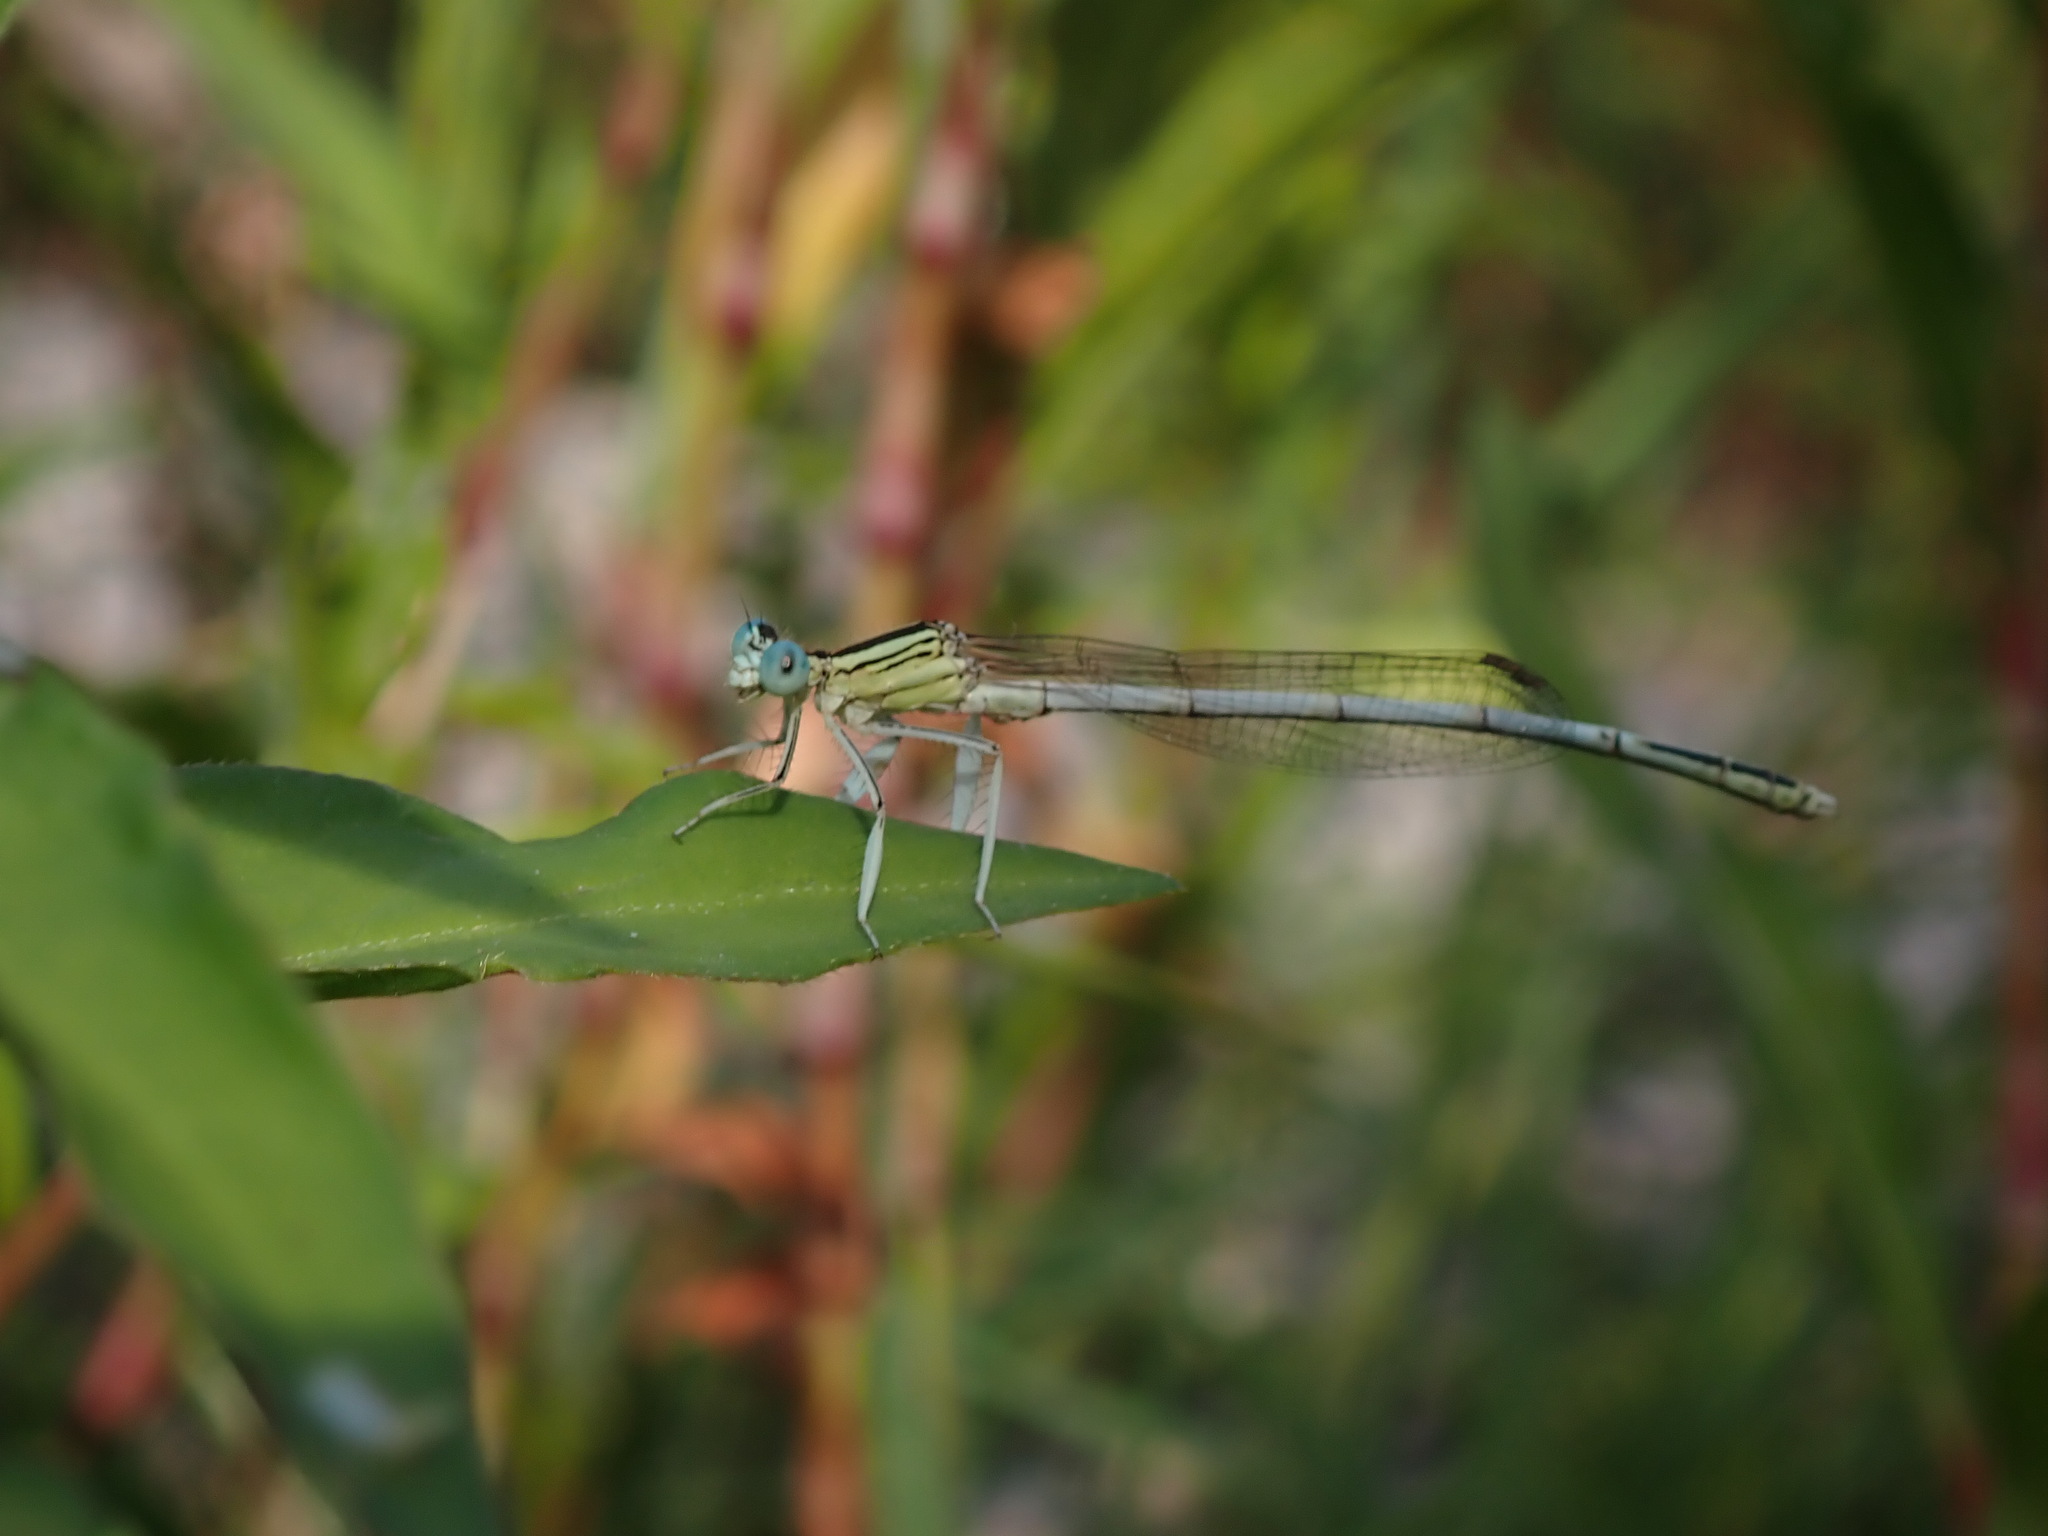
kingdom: Animalia
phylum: Arthropoda
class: Insecta
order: Odonata
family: Platycnemididae
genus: Platycnemis
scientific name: Platycnemis latipes
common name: White featherleg
